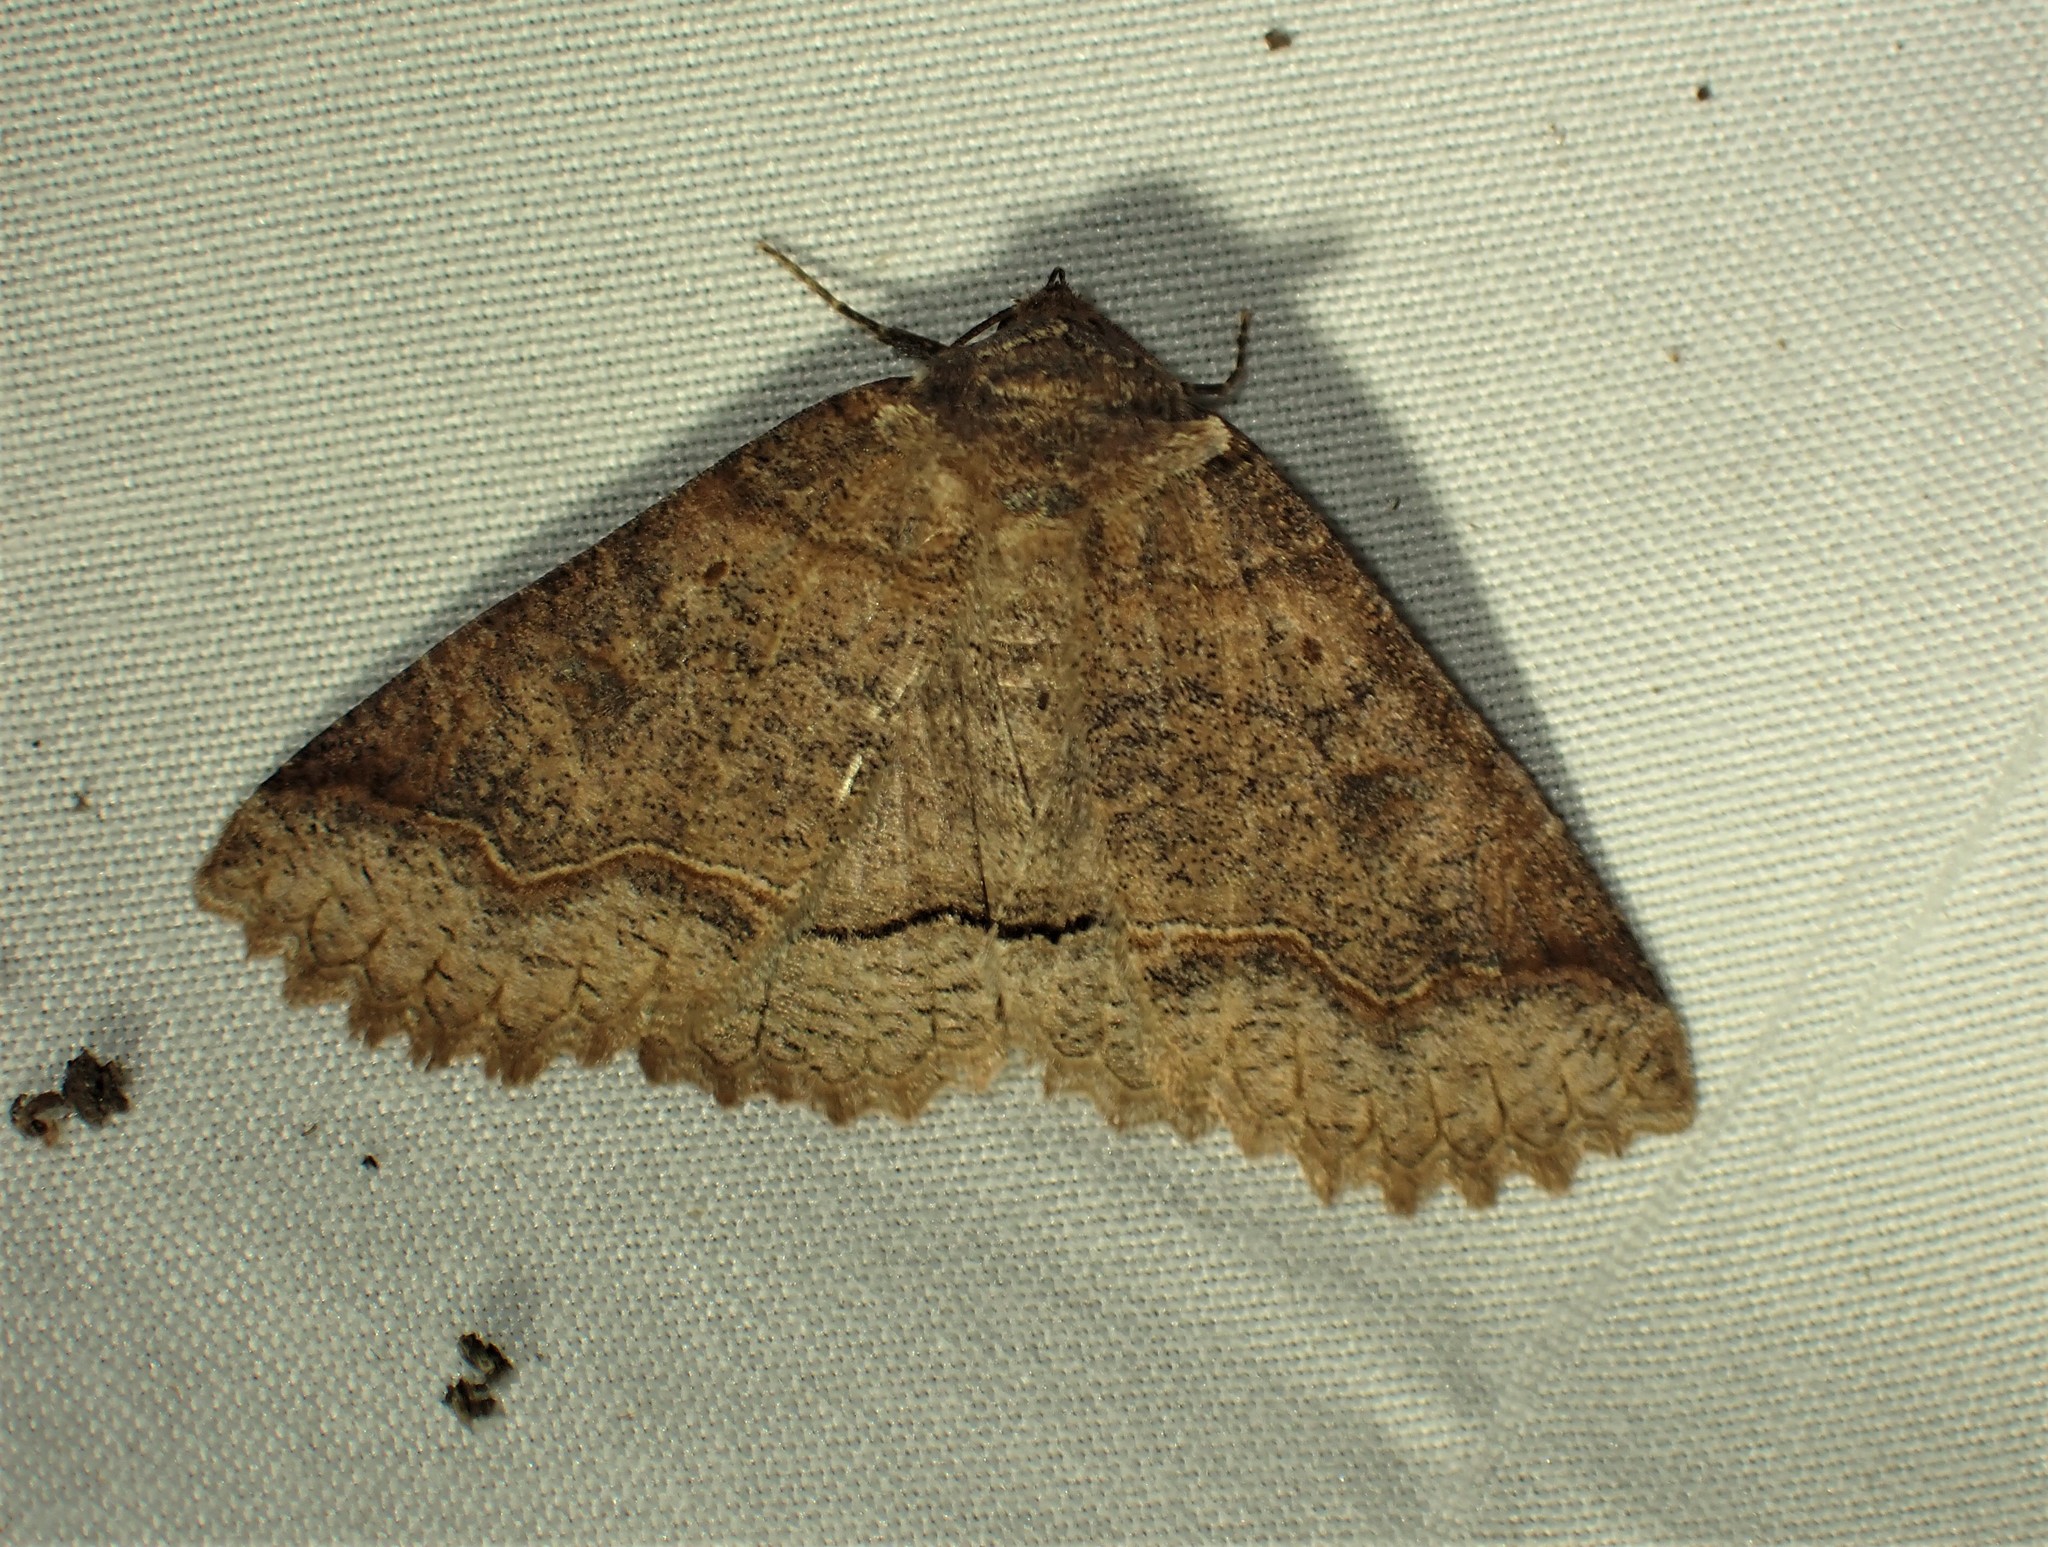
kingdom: Animalia
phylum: Arthropoda
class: Insecta
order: Lepidoptera
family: Erebidae
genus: Zale
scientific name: Zale unilineata
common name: One-lined zale moth
